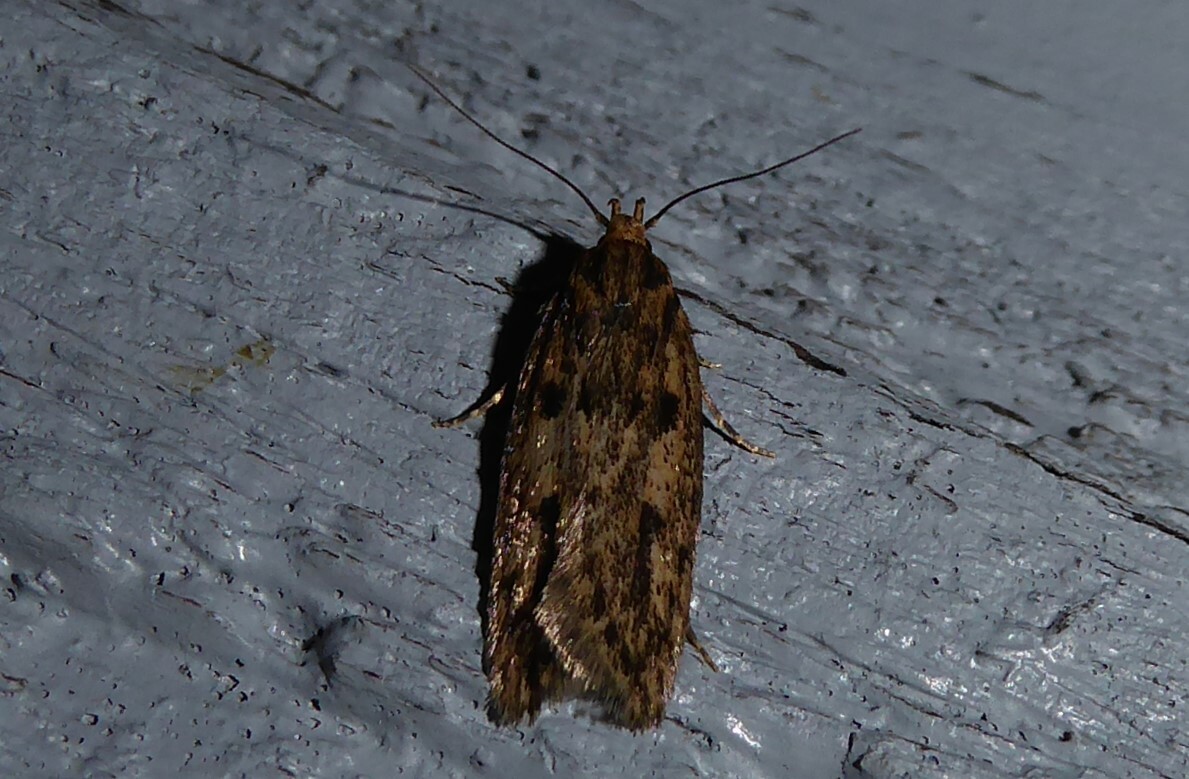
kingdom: Animalia
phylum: Arthropoda
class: Insecta
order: Lepidoptera
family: Oecophoridae
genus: Hofmannophila
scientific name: Hofmannophila pseudospretella
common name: Brown house moth
